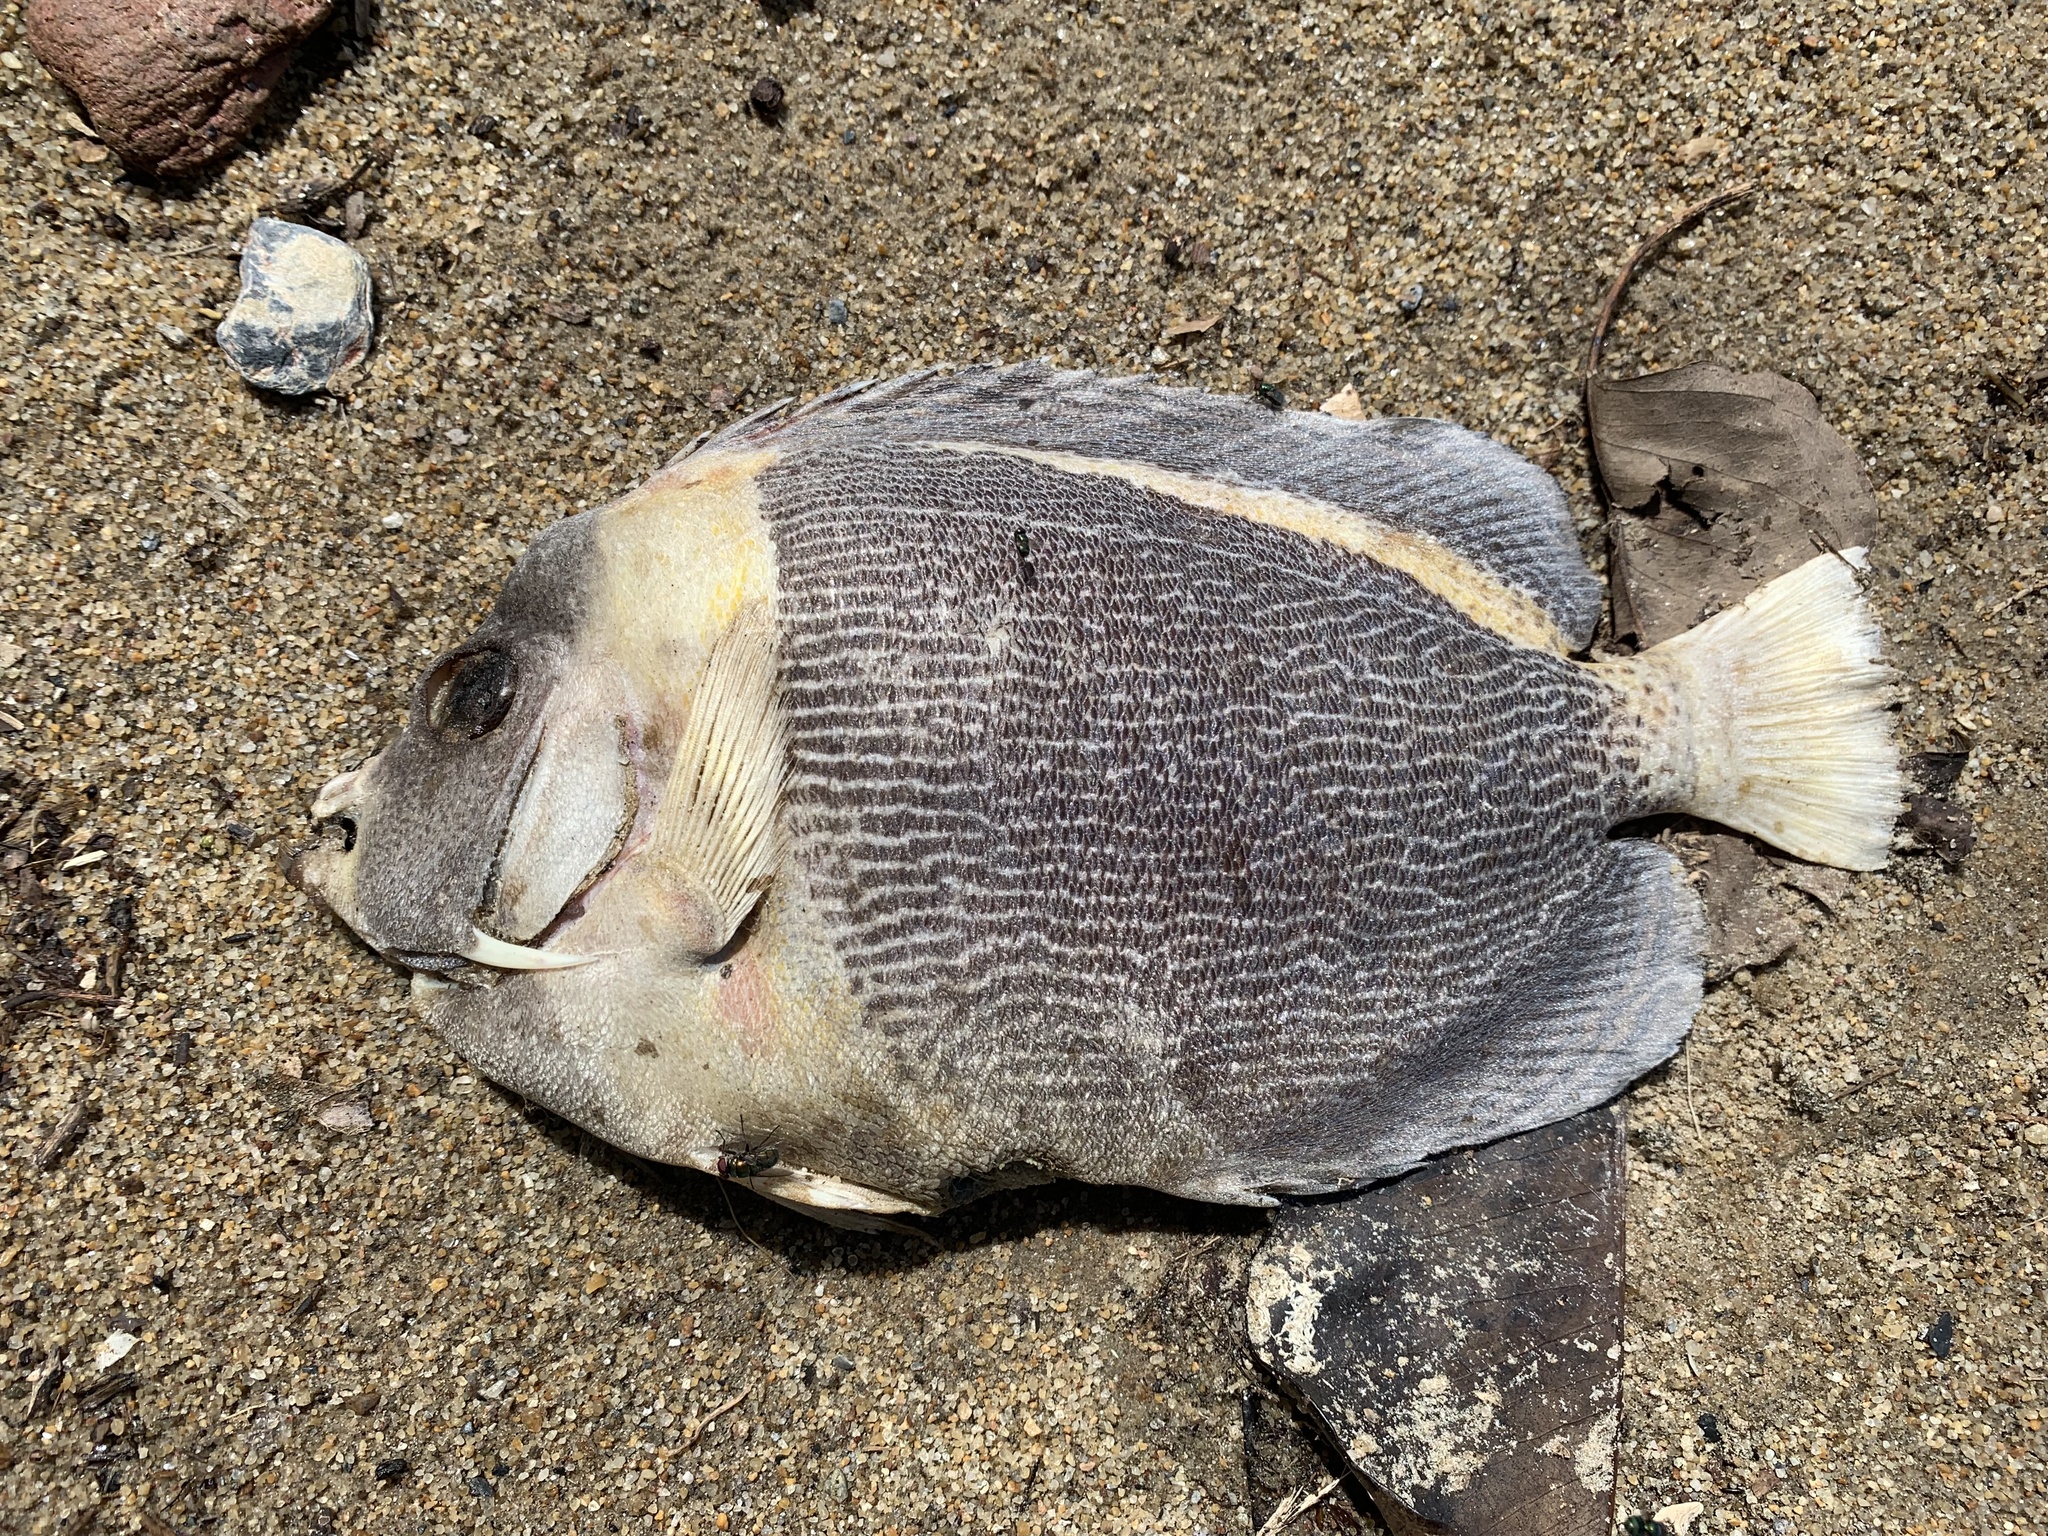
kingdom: Animalia
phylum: Chordata
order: Perciformes
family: Pomacanthidae
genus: Chaetodontoplus
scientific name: Chaetodontoplus duboulayi
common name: Scribbled angelfish
